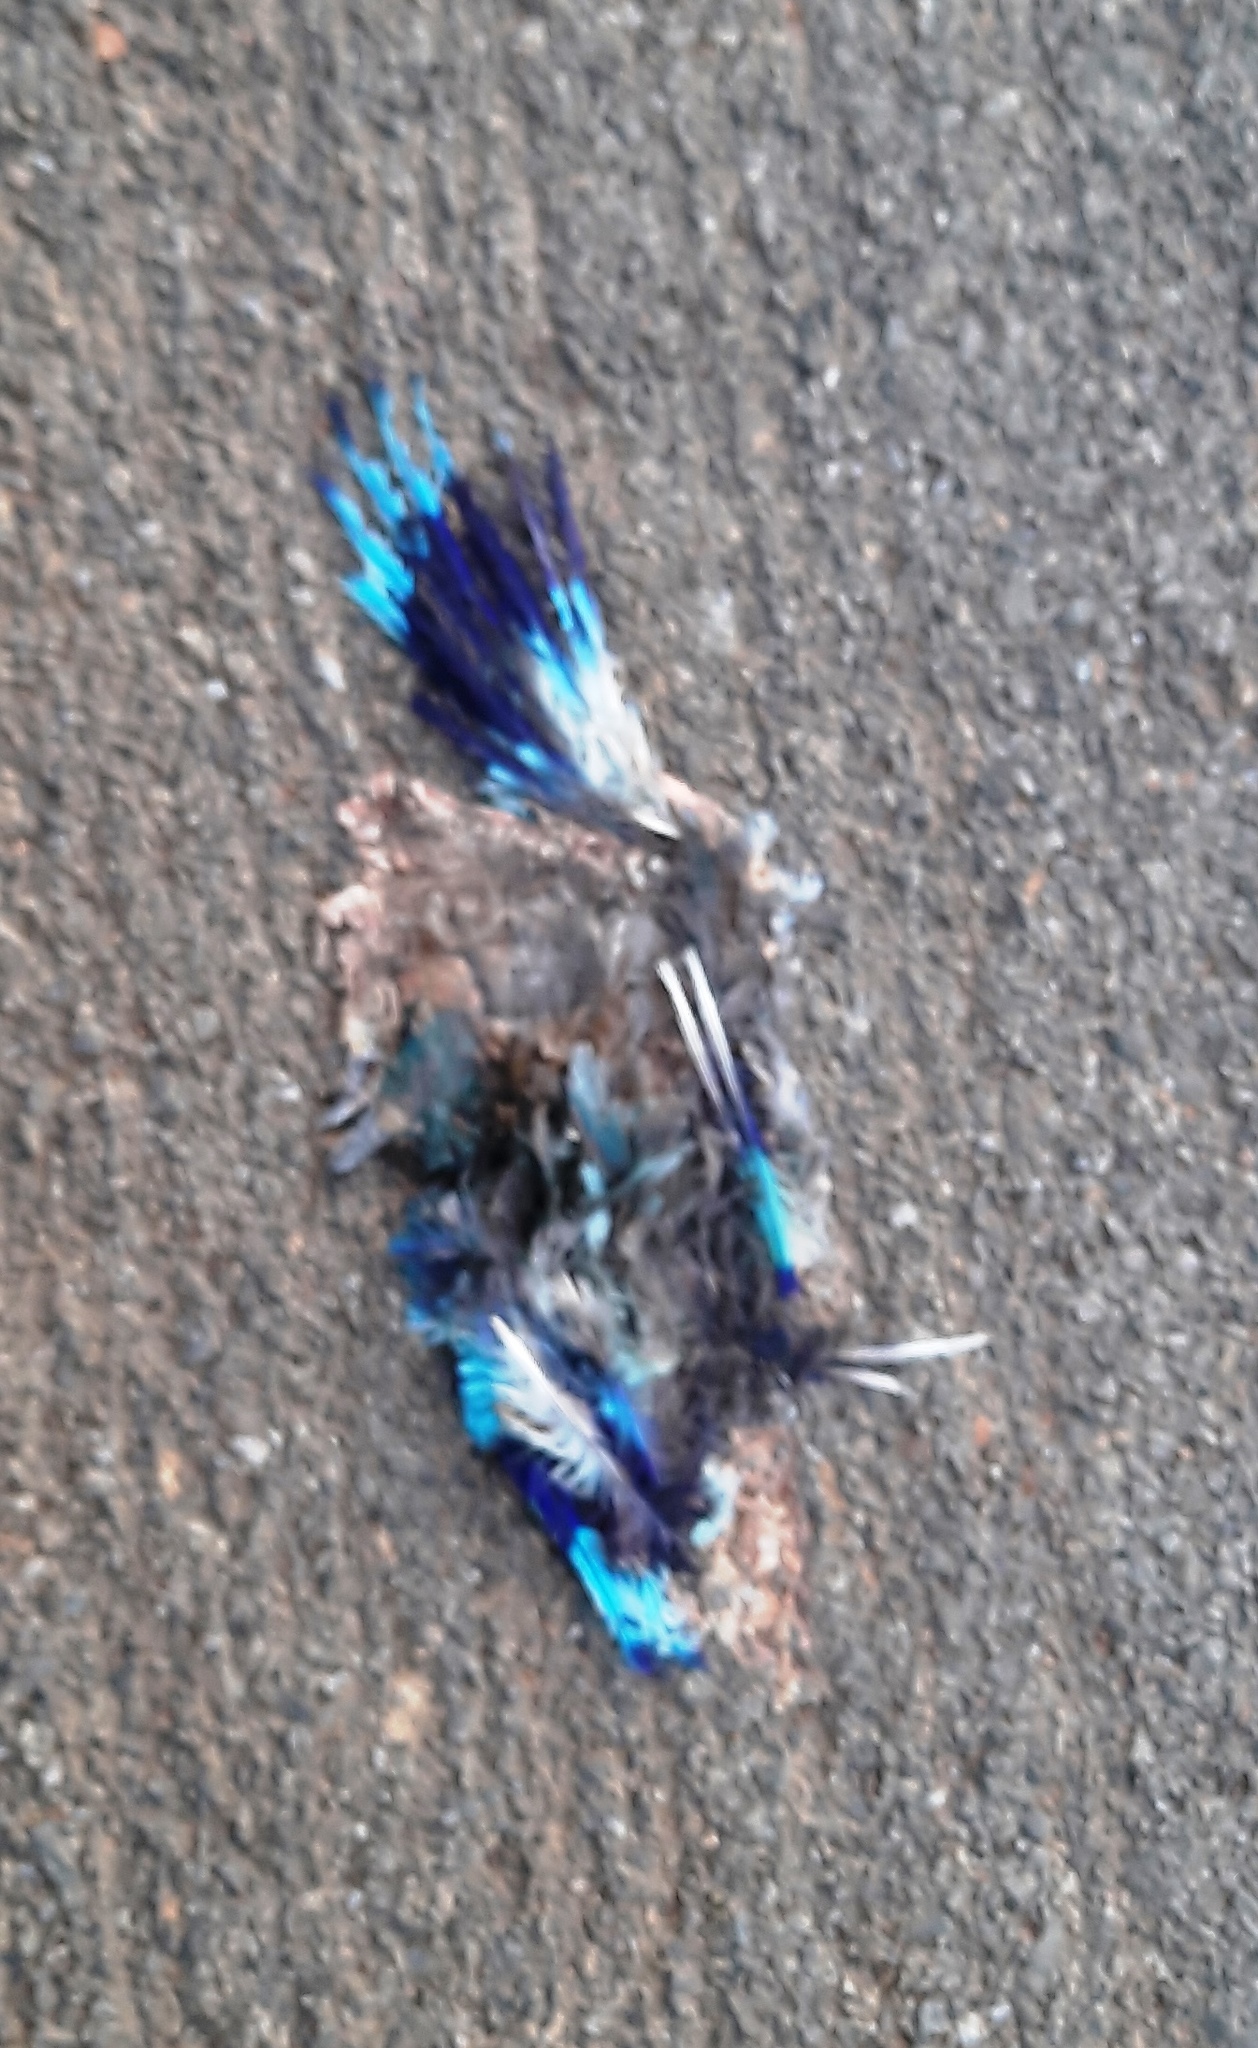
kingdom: Animalia
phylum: Chordata
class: Aves
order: Coraciiformes
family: Coraciidae
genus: Coracias
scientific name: Coracias benghalensis
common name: Indian roller
